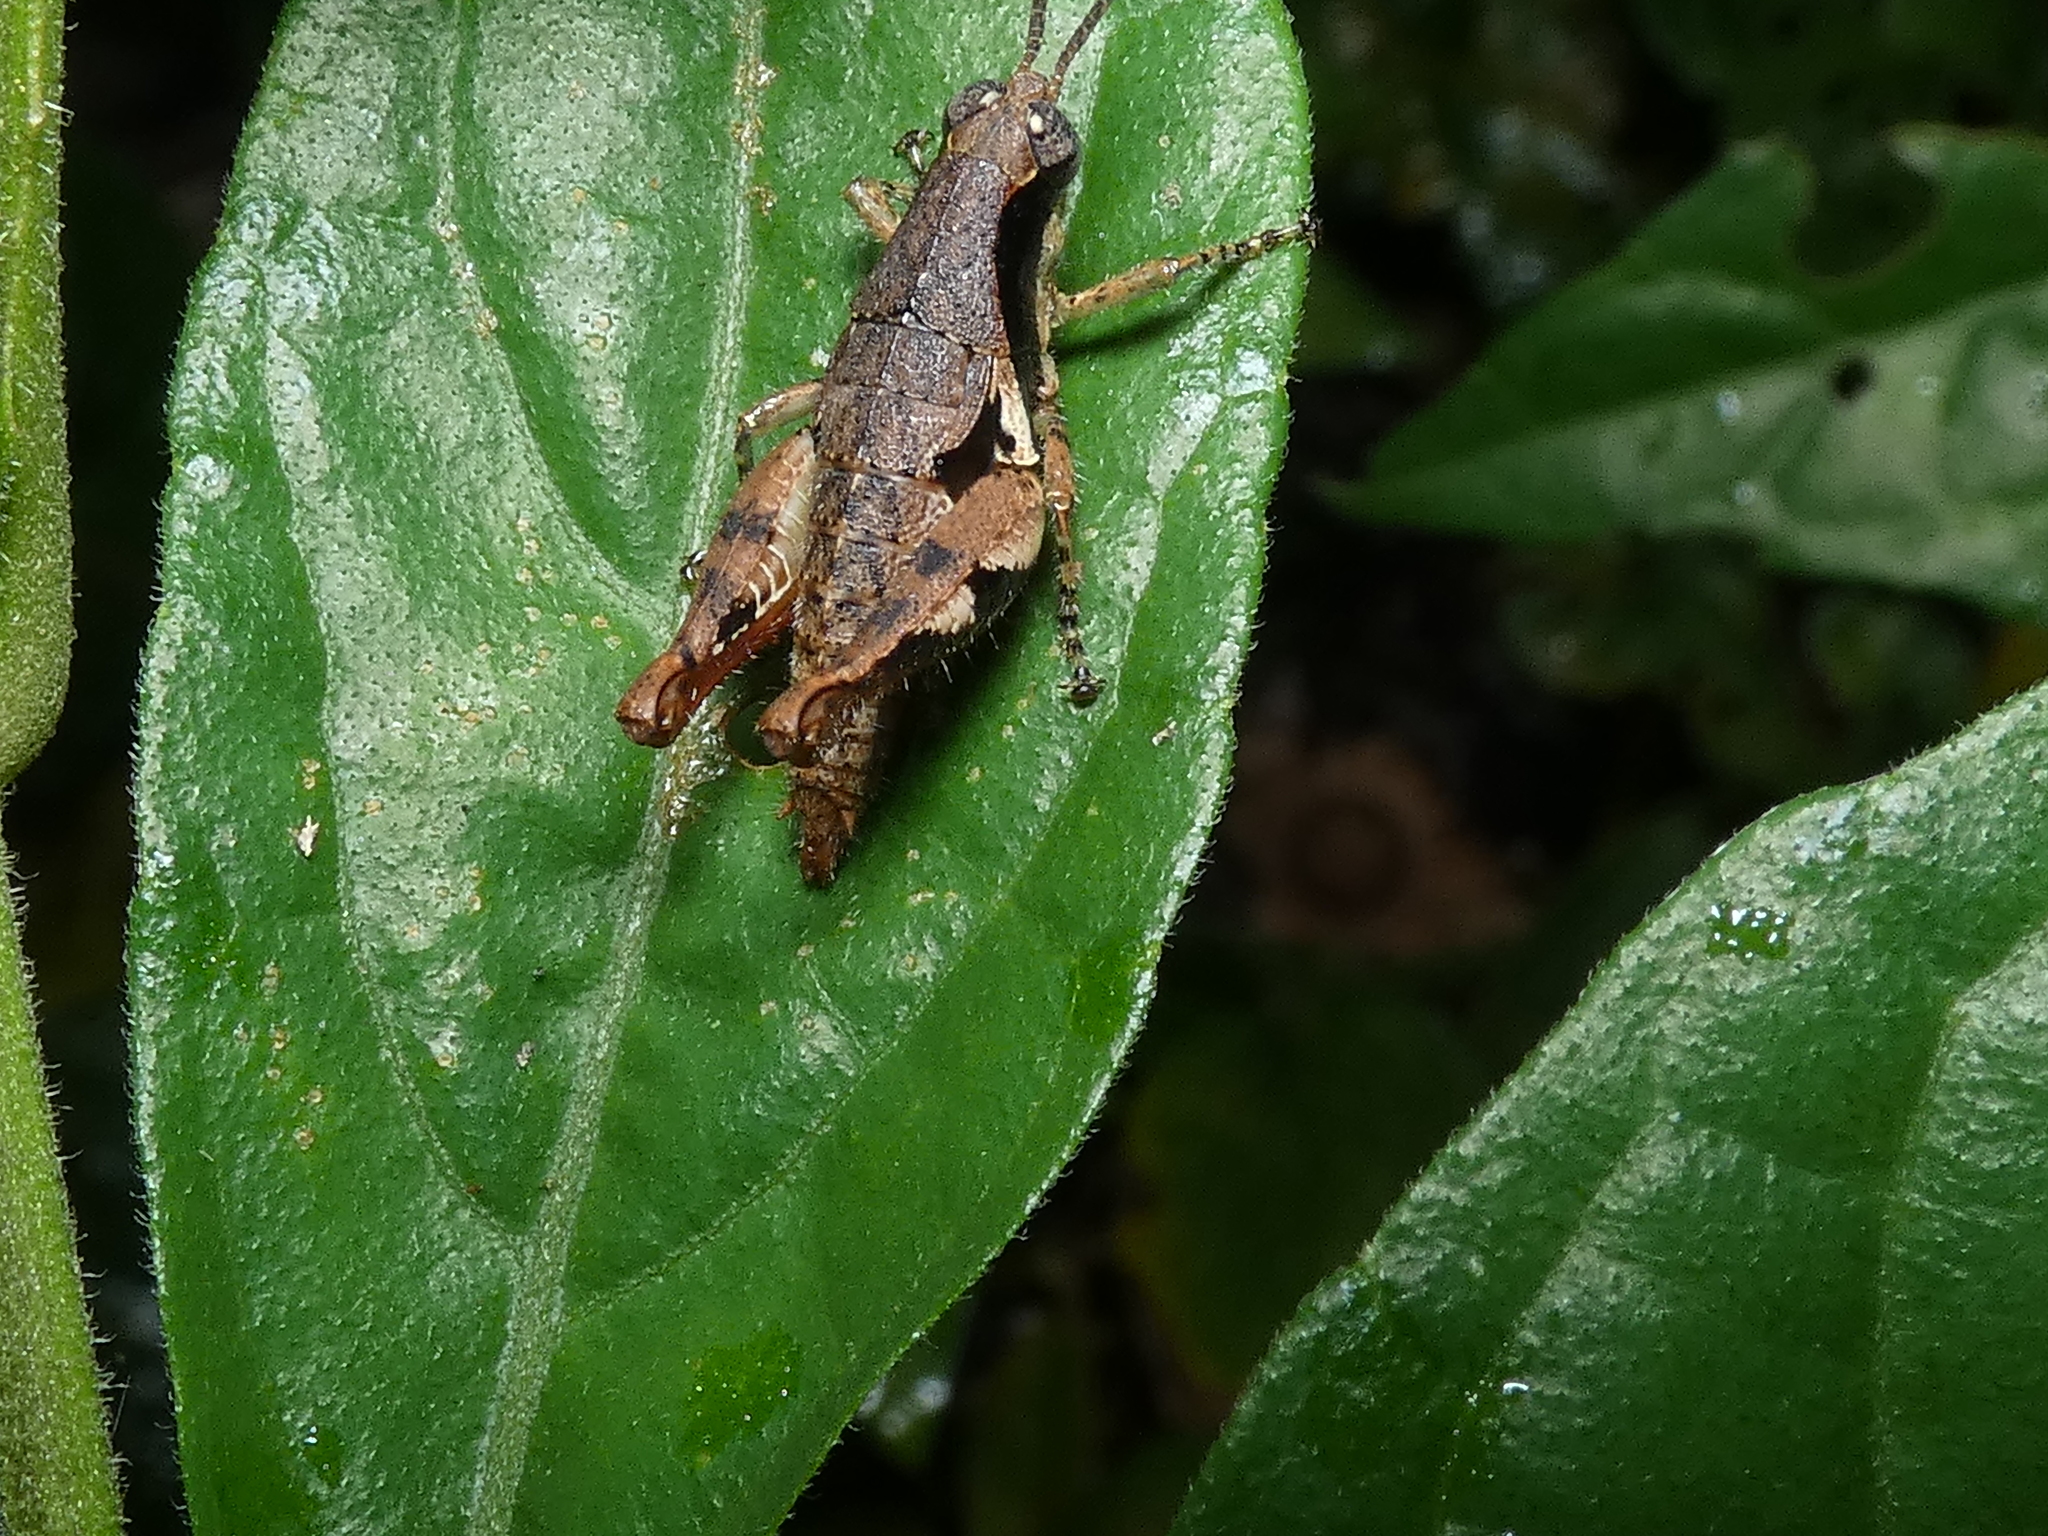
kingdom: Animalia
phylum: Arthropoda
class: Insecta
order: Orthoptera
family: Acrididae
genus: Eujivarus
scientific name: Eujivarus meridionalis
